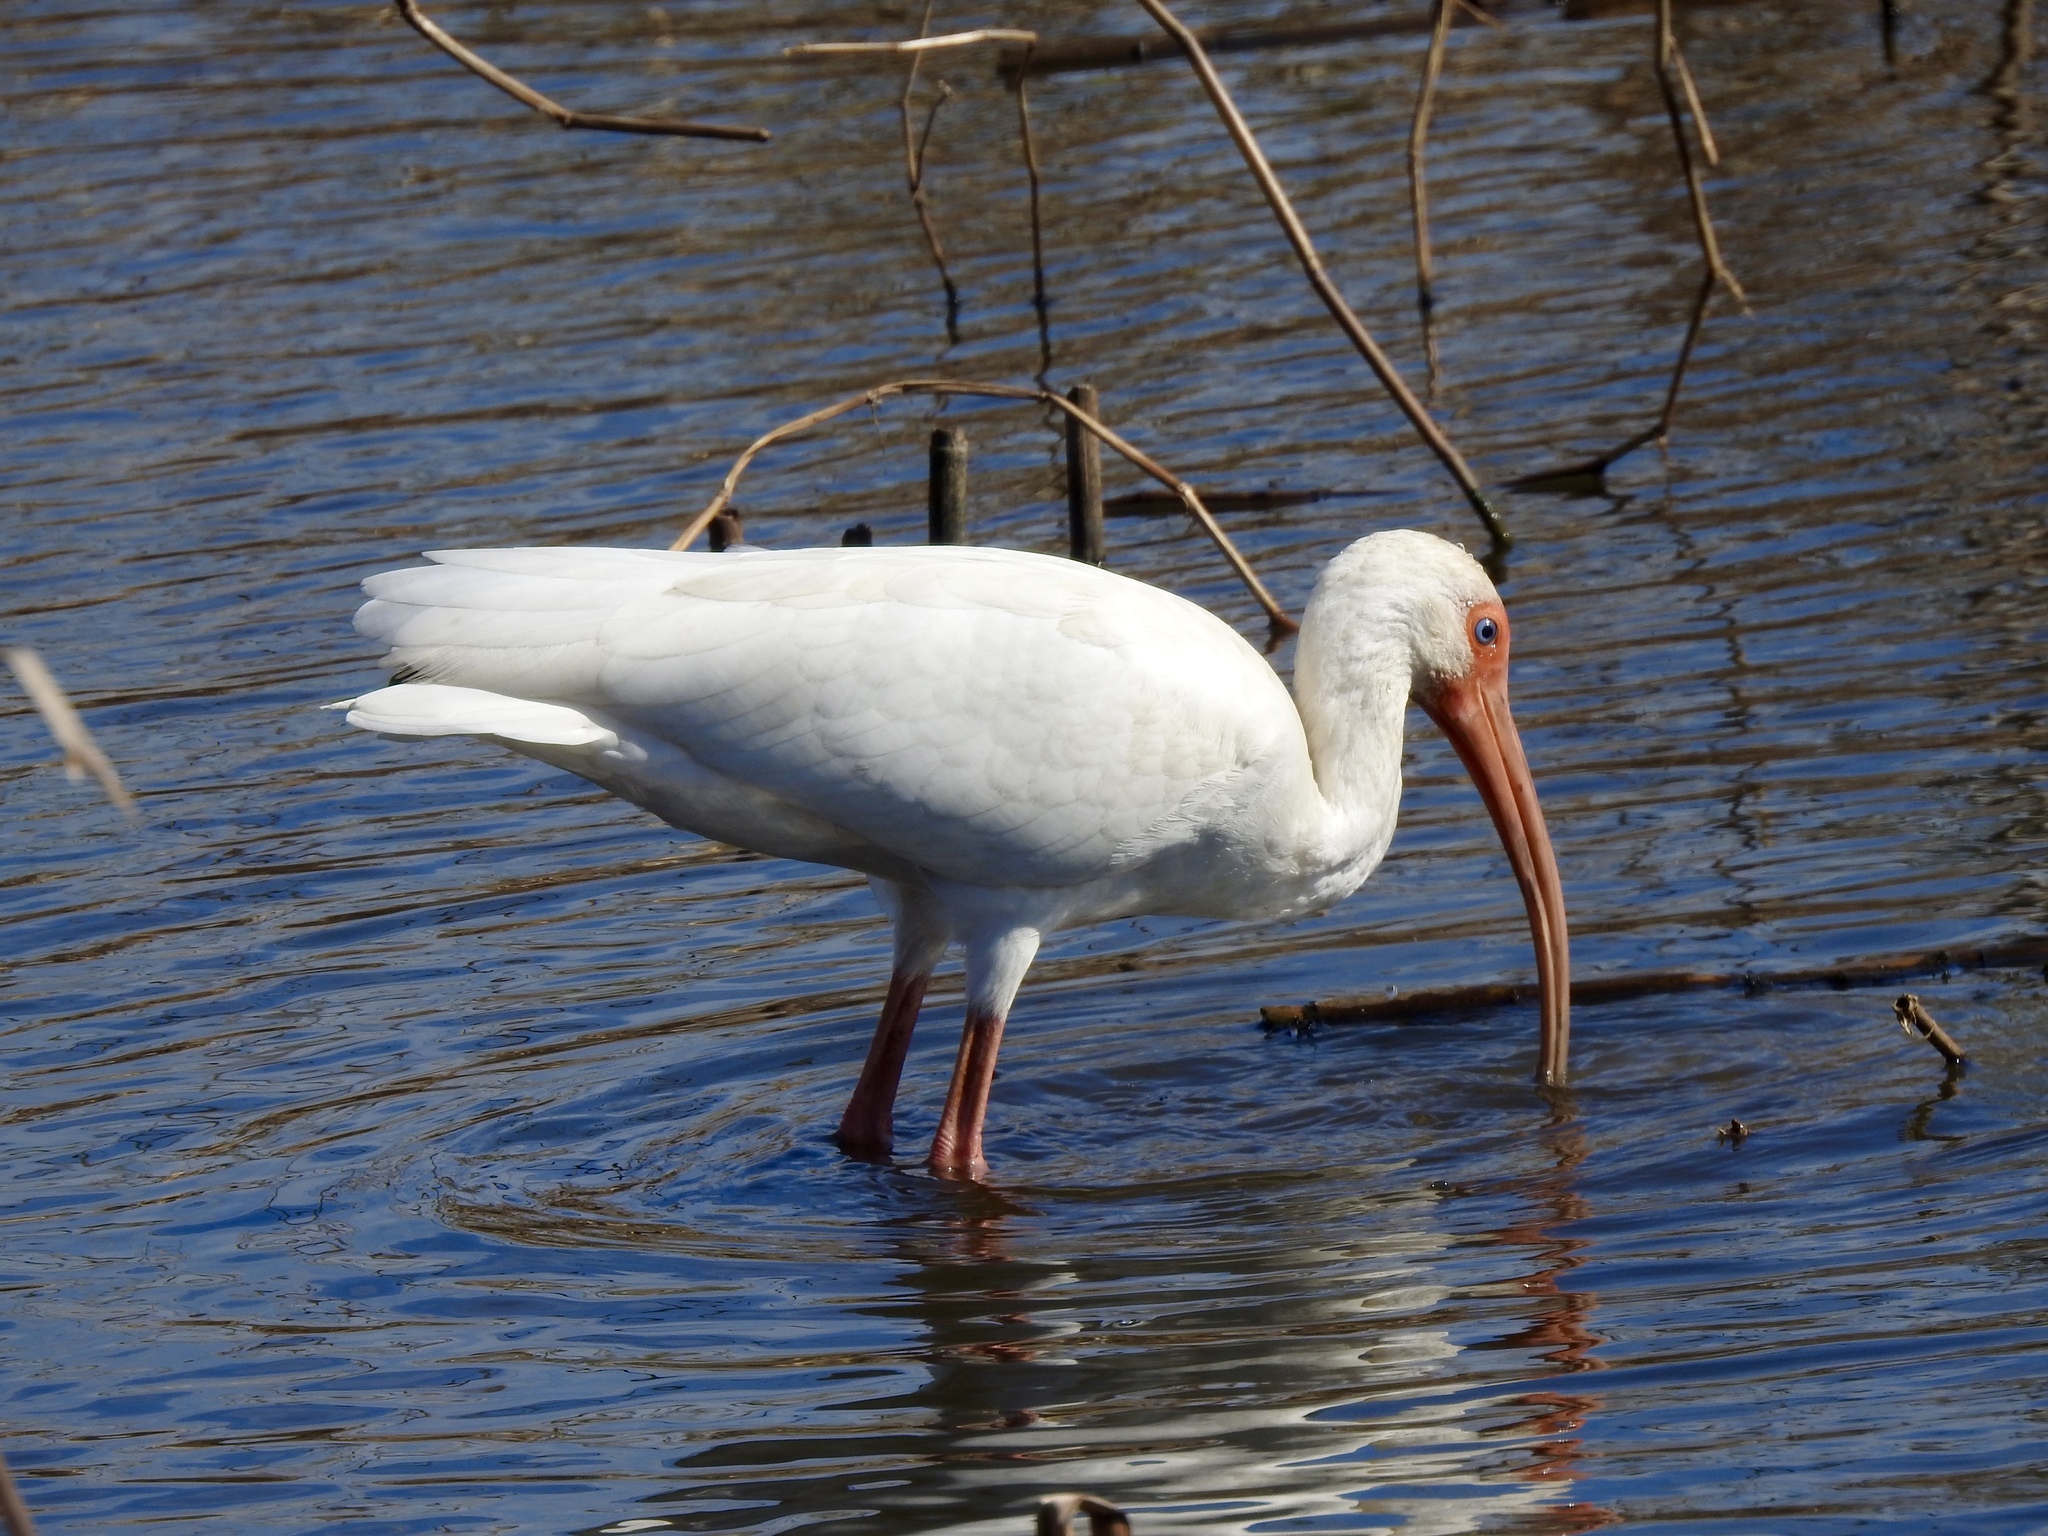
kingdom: Animalia
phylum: Chordata
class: Aves
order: Pelecaniformes
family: Threskiornithidae
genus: Eudocimus
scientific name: Eudocimus albus
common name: White ibis
